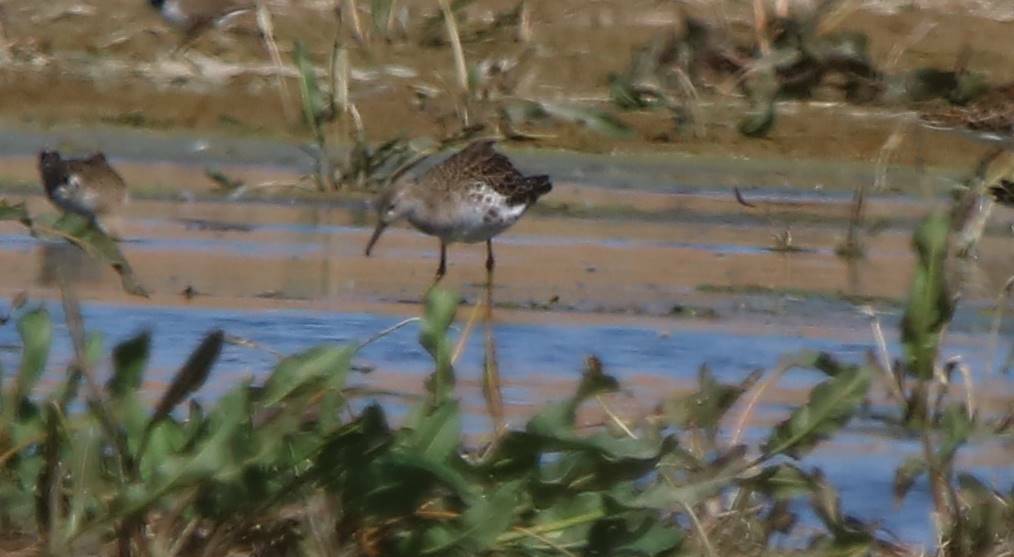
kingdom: Animalia
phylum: Chordata
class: Aves
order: Charadriiformes
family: Scolopacidae
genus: Calidris
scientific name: Calidris pugnax
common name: Ruff
